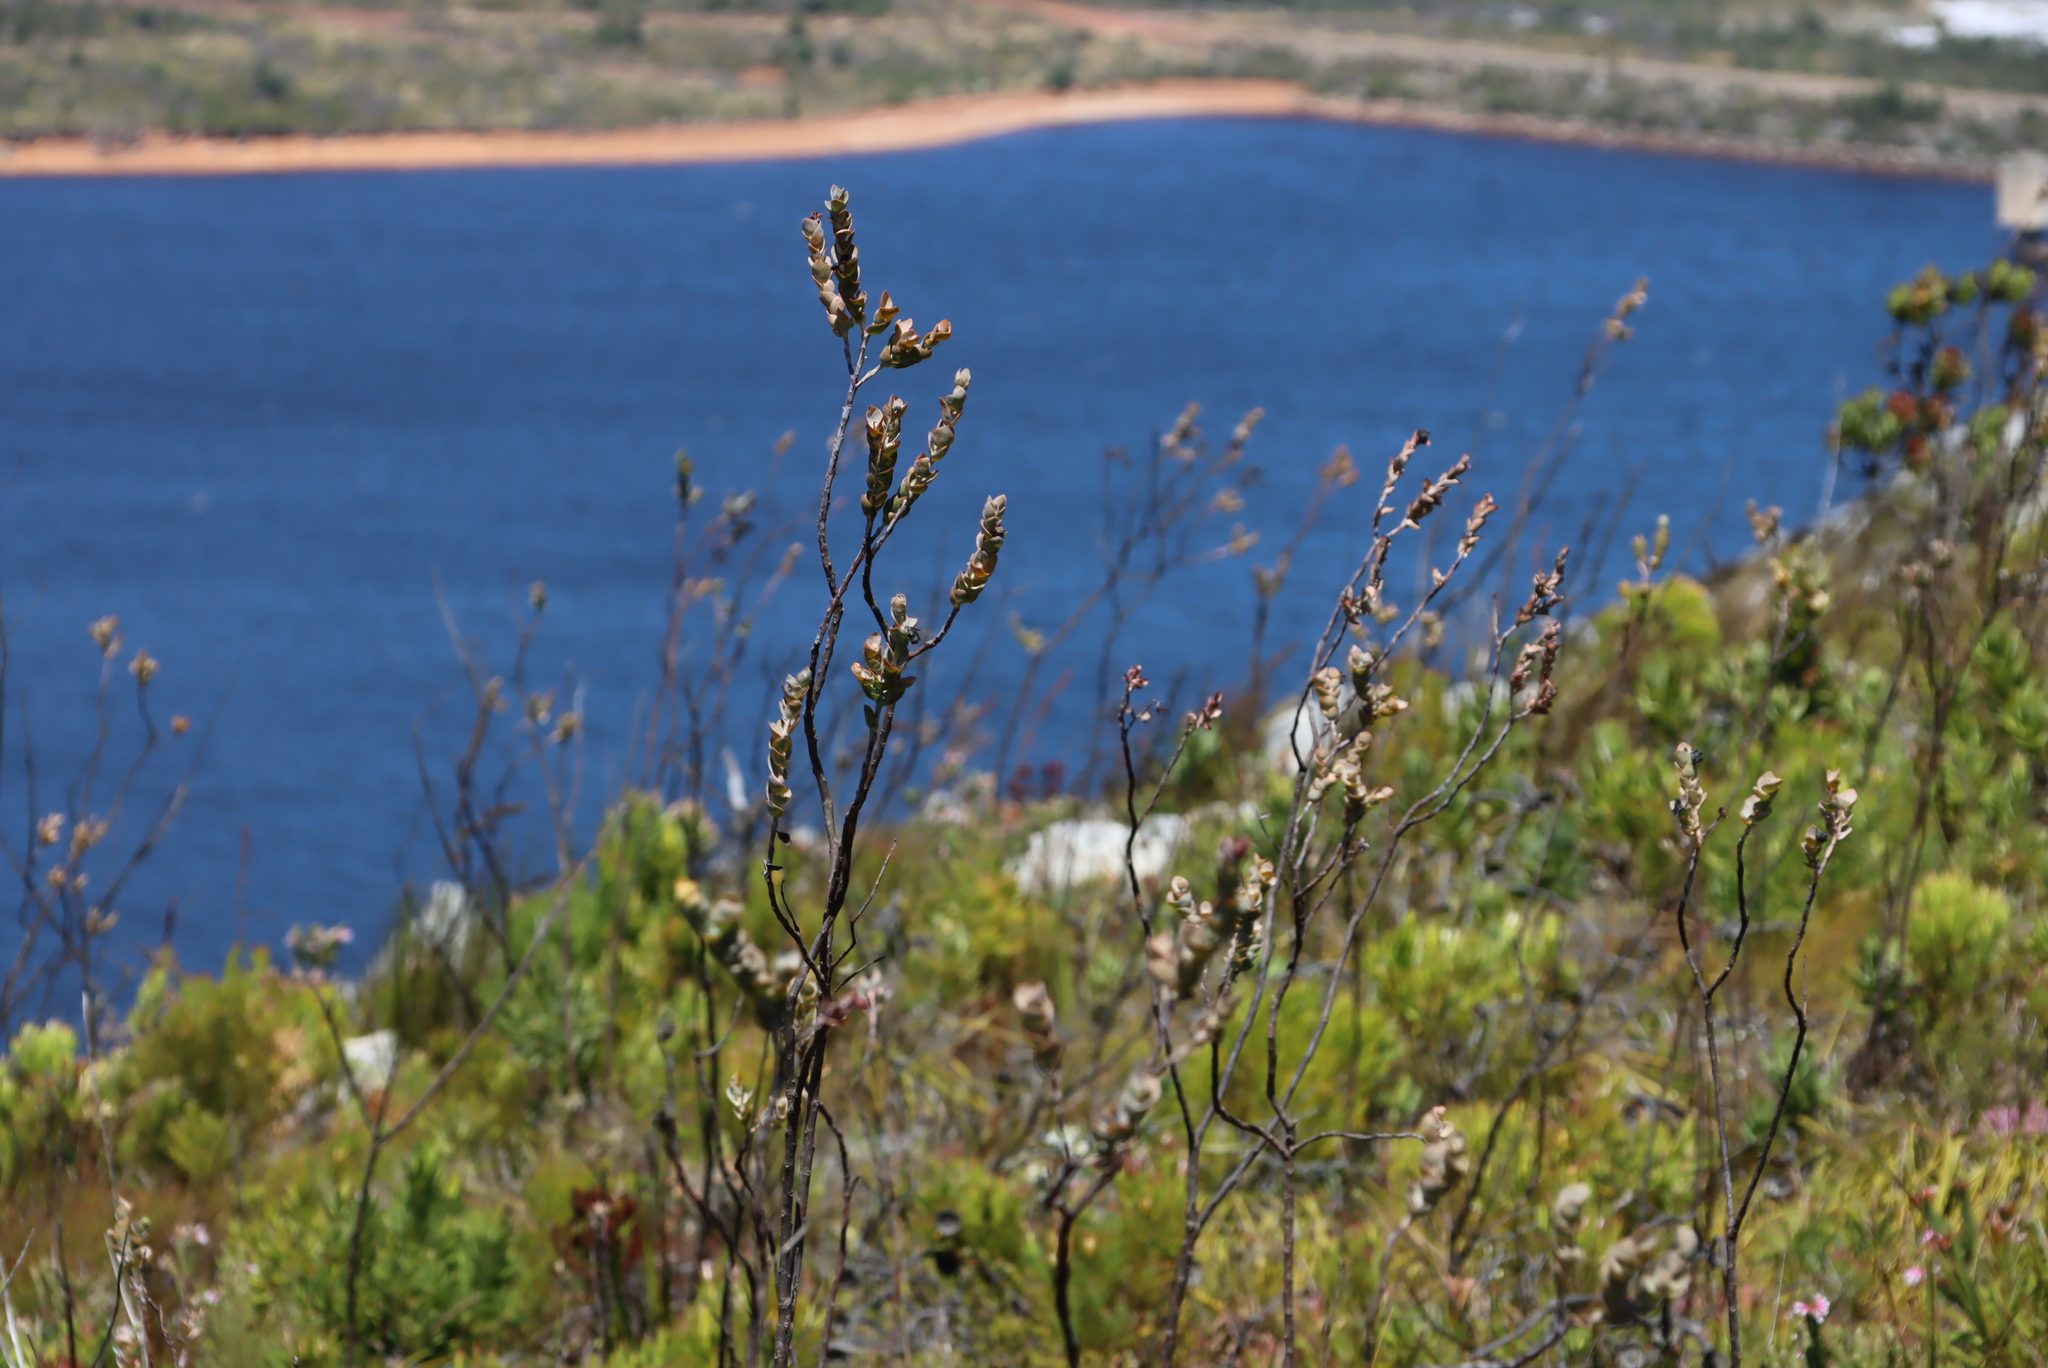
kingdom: Plantae
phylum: Tracheophyta
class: Magnoliopsida
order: Santalales
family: Thesiaceae
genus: Thesium
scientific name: Thesium euphorbioides
